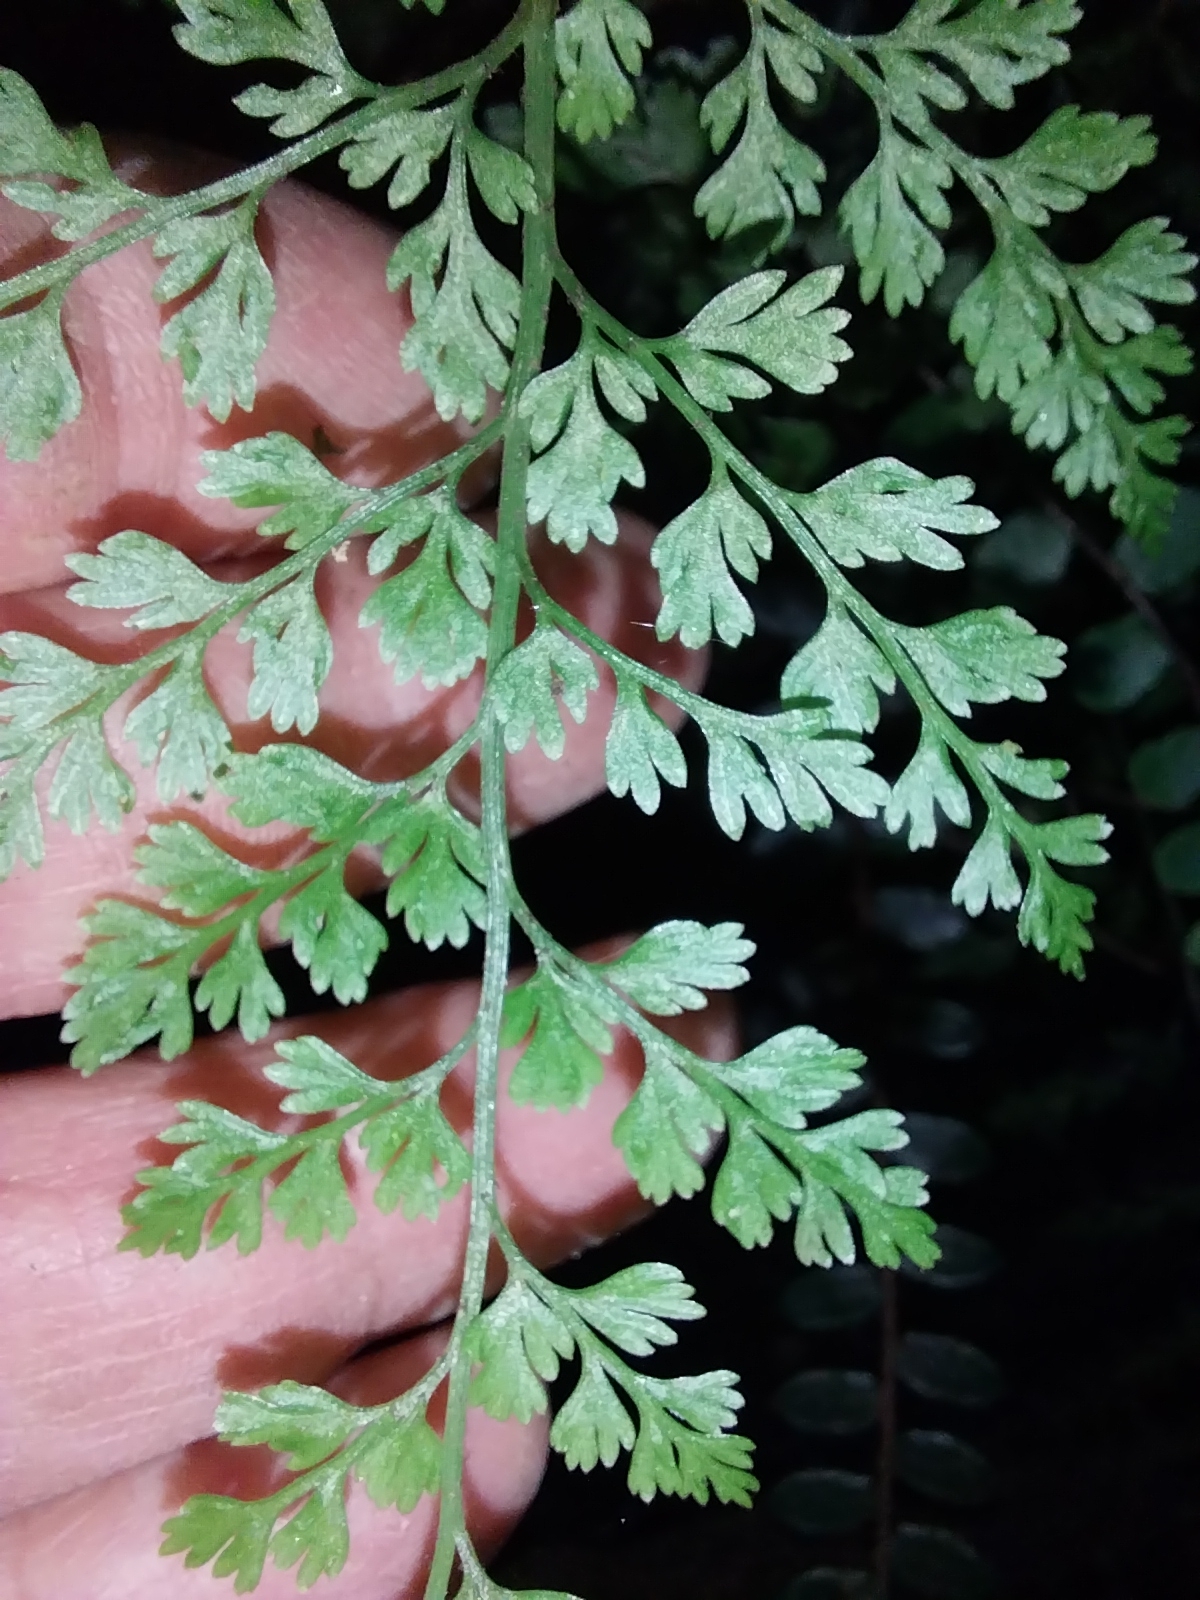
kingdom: Plantae
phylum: Tracheophyta
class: Polypodiopsida
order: Polypodiales
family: Aspleniaceae
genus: Asplenium
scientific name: Asplenium hookerianum
